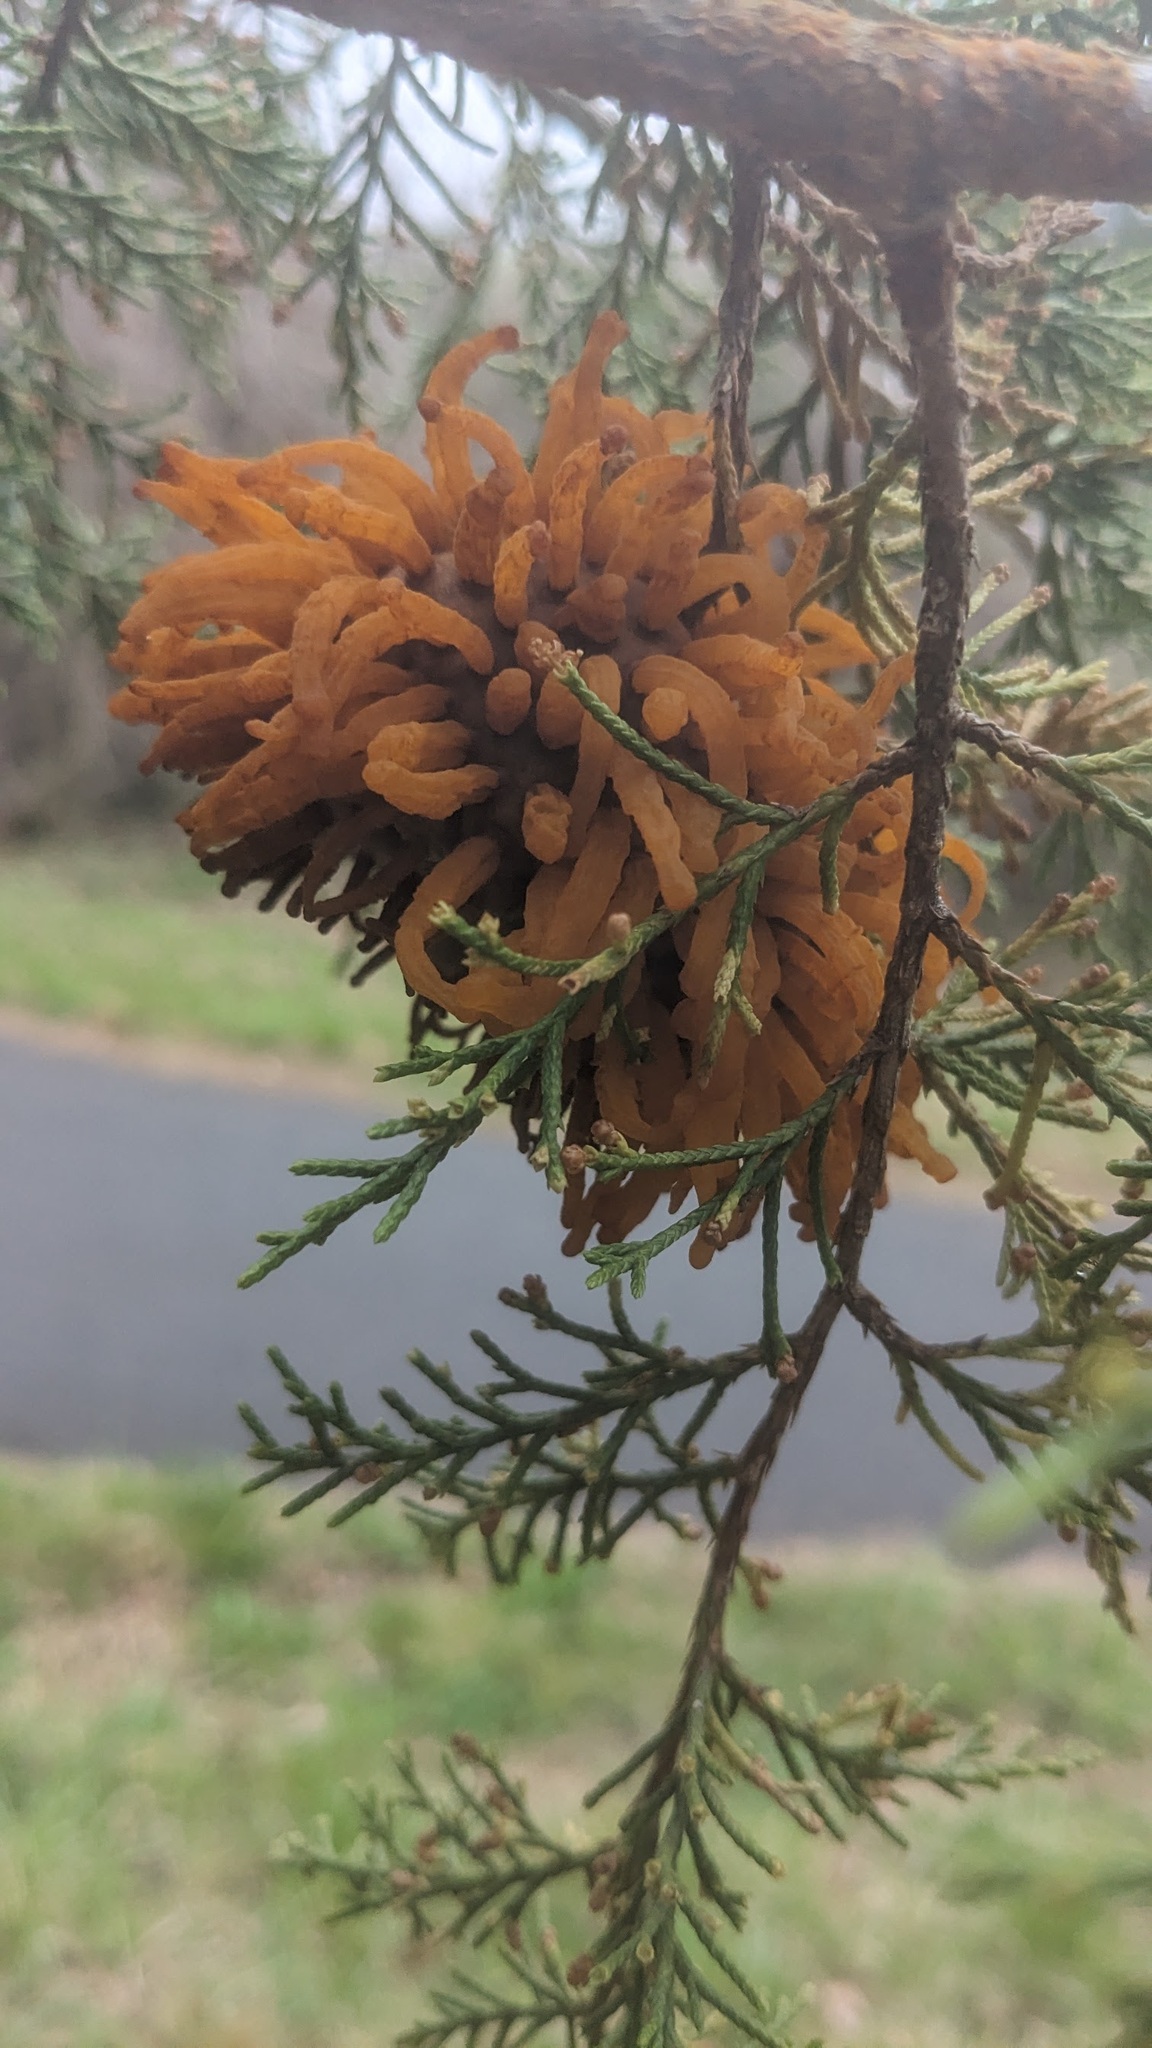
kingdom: Fungi
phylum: Basidiomycota
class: Pucciniomycetes
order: Pucciniales
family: Gymnosporangiaceae
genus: Gymnosporangium
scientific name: Gymnosporangium juniperi-virginianae
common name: Juniper-apple rust
